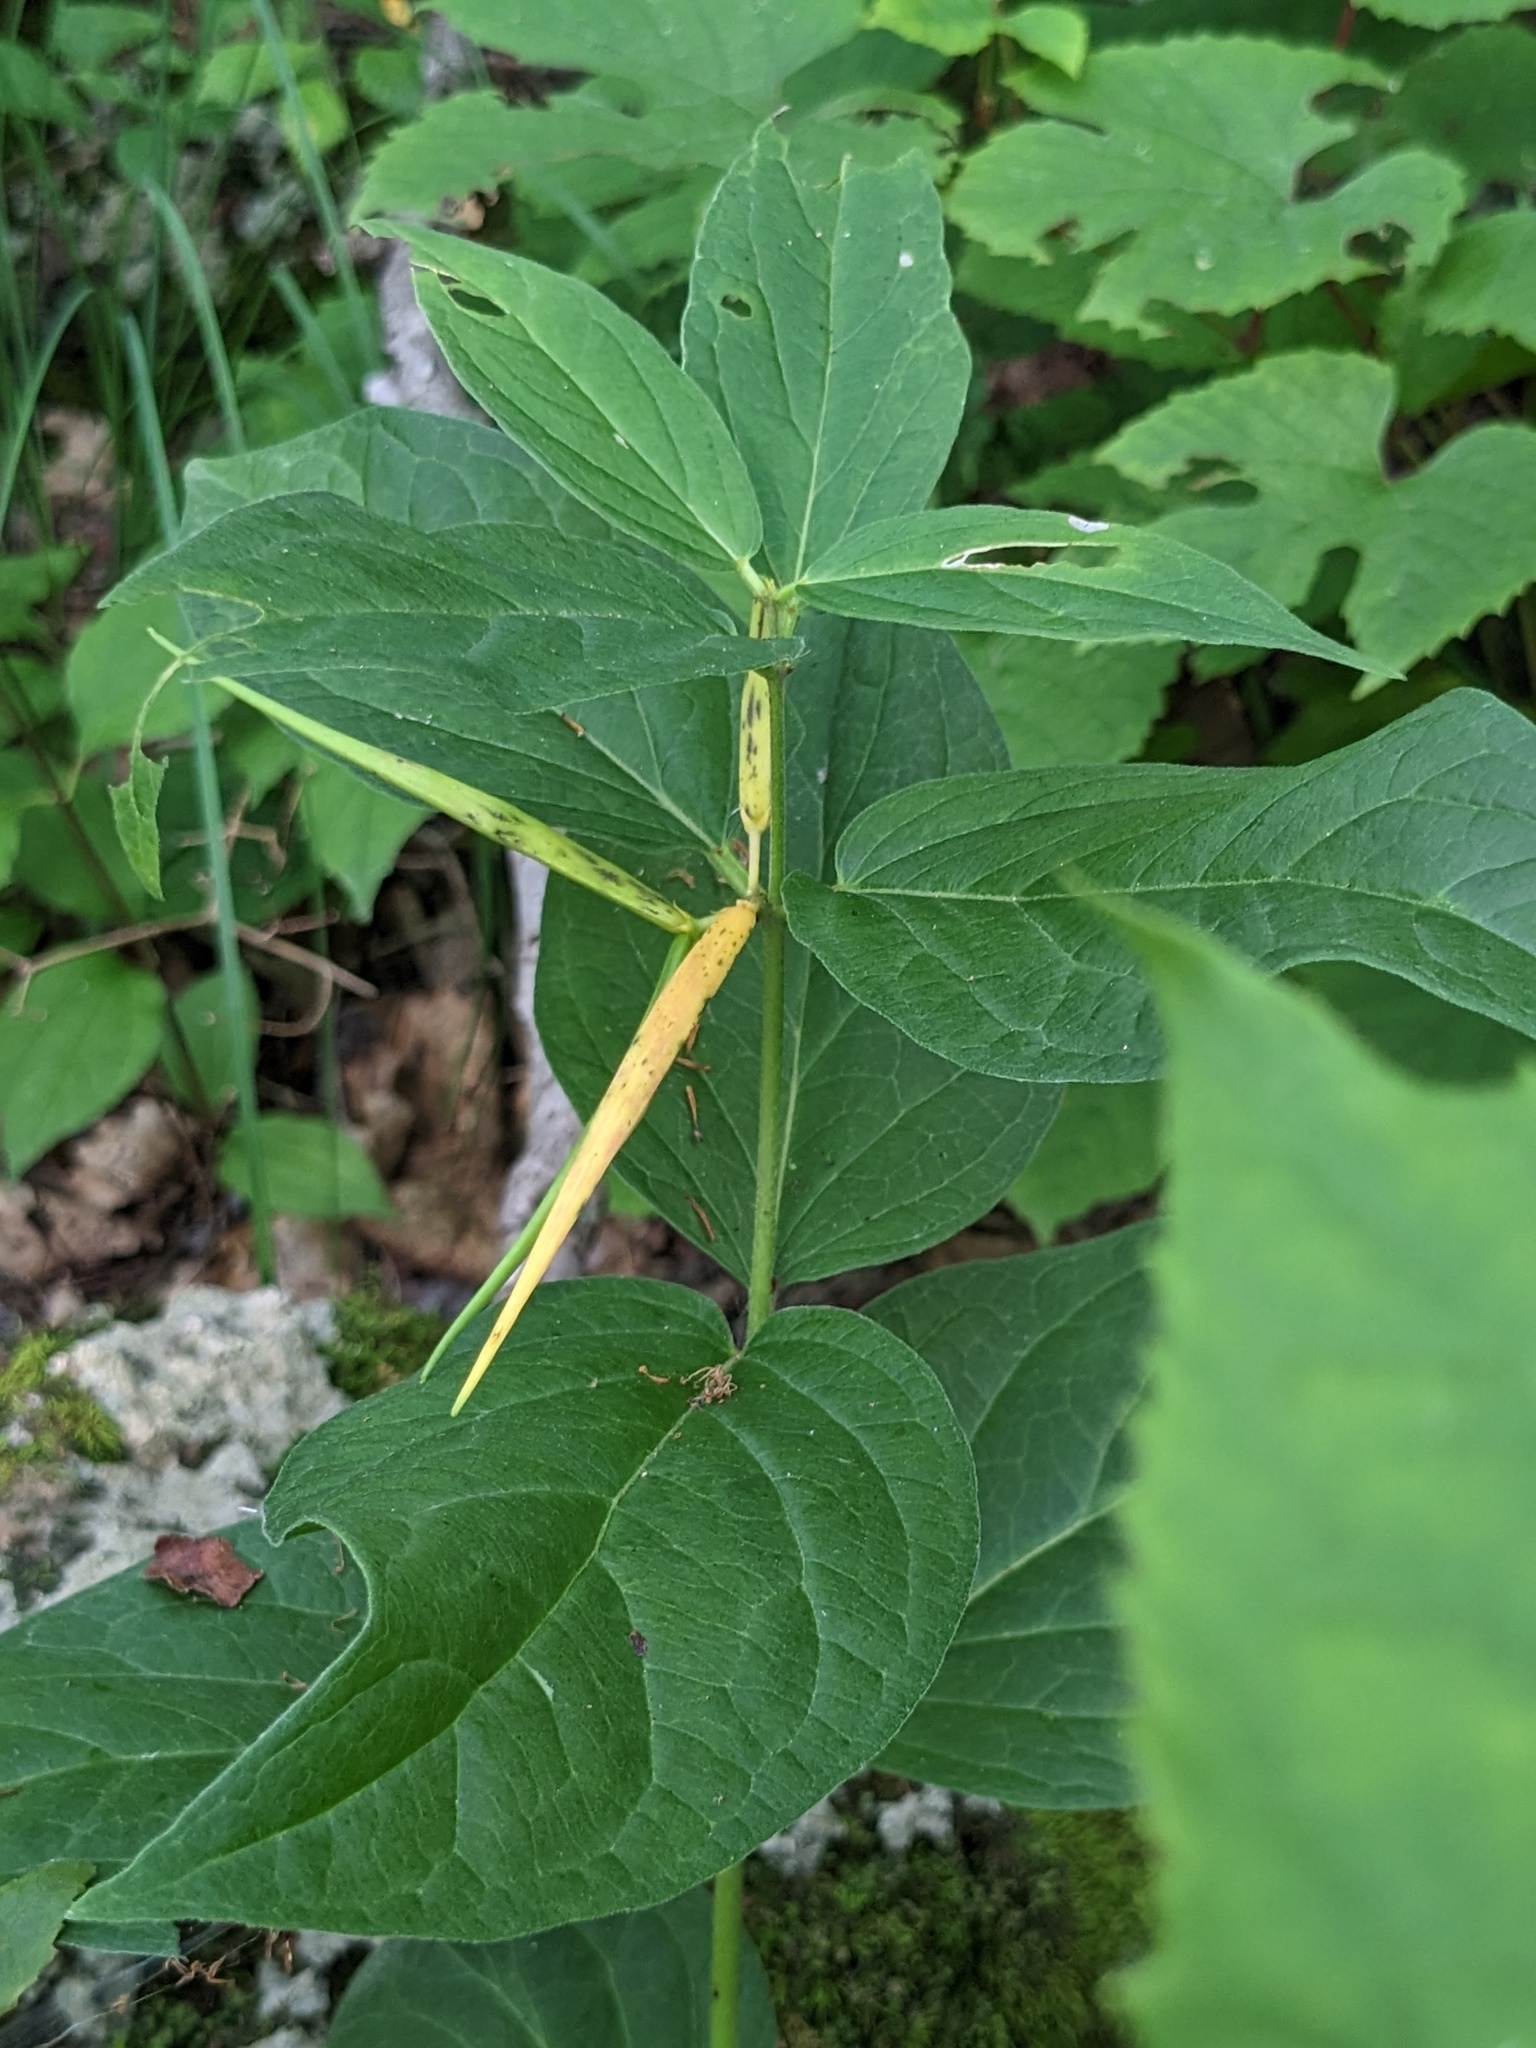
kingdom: Plantae
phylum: Tracheophyta
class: Magnoliopsida
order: Gentianales
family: Apocynaceae
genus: Vincetoxicum
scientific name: Vincetoxicum inamoenum
